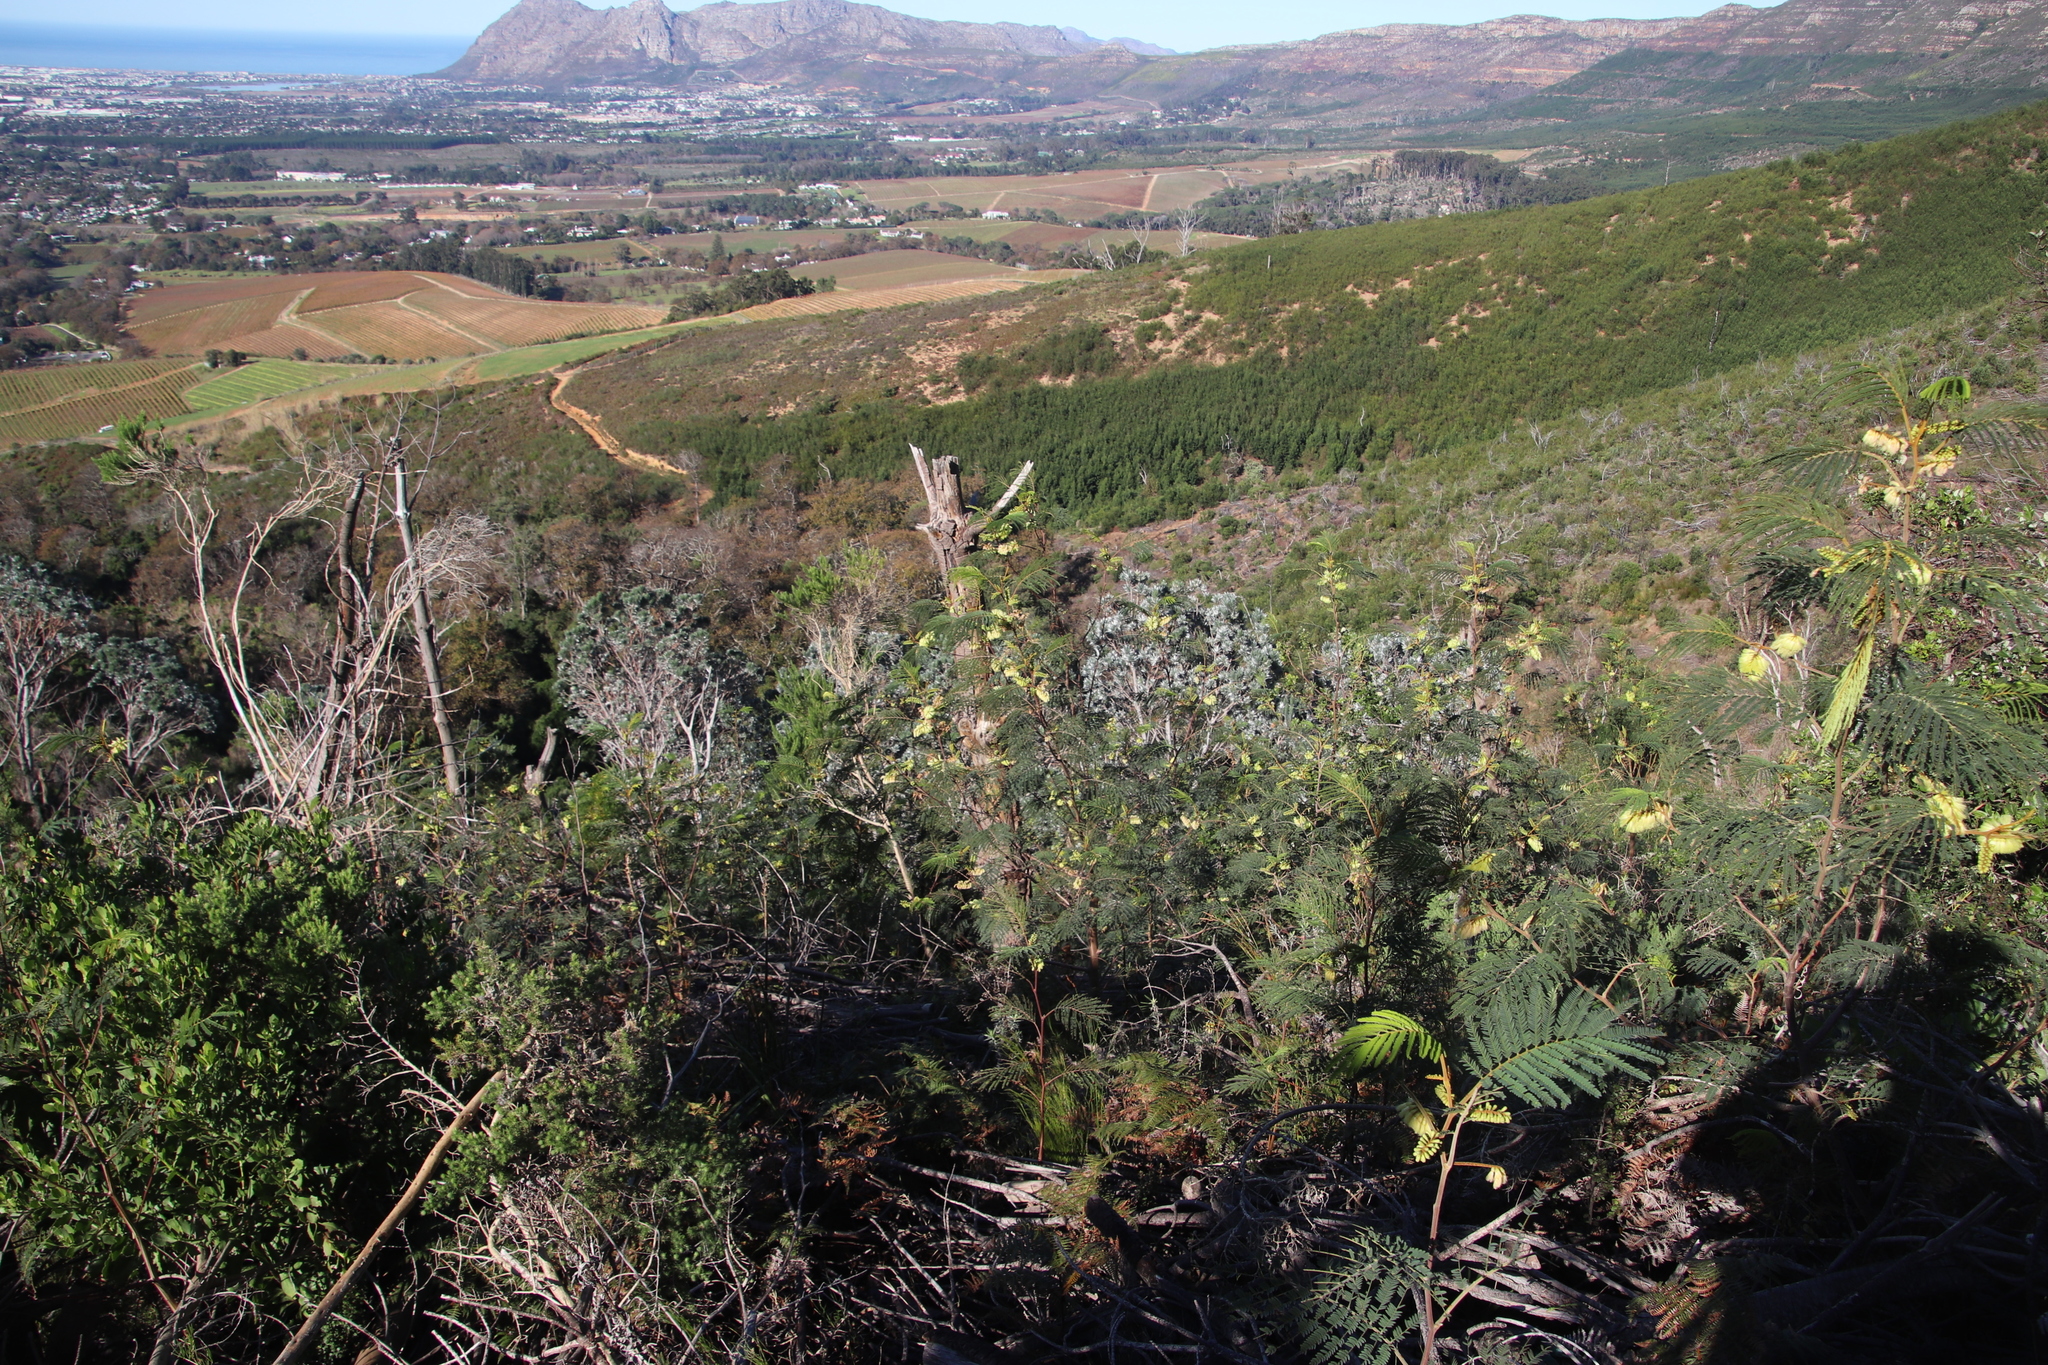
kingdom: Plantae
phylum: Tracheophyta
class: Magnoliopsida
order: Fabales
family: Fabaceae
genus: Paraserianthes
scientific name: Paraserianthes lophantha
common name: Plume albizia
